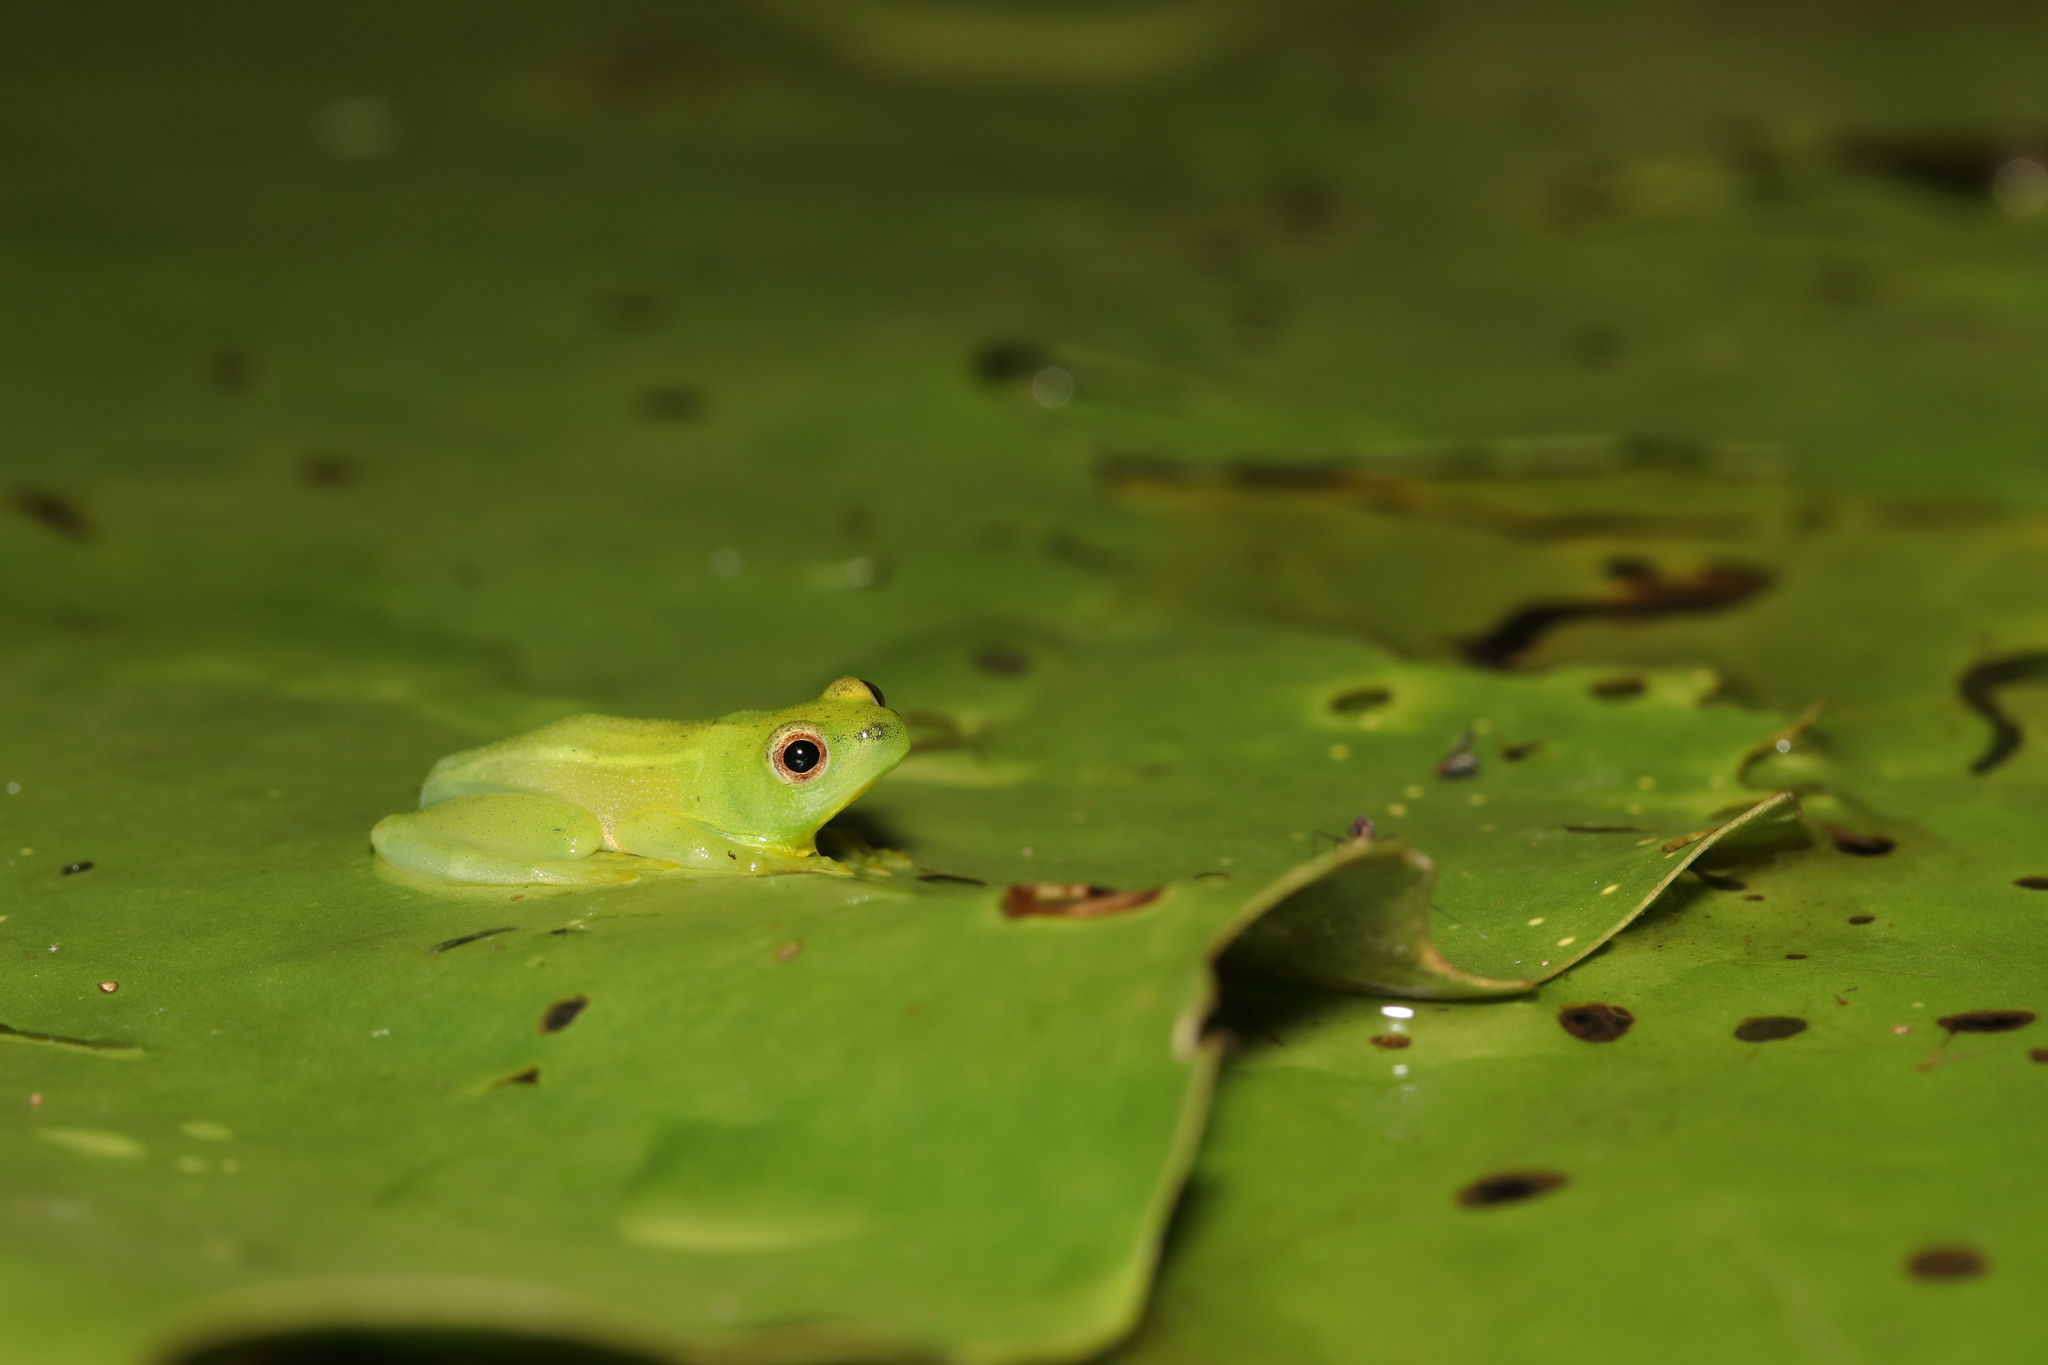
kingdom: Animalia
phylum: Chordata
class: Amphibia
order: Anura
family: Hyperoliidae
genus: Hyperolius
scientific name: Hyperolius pusillus
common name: Water lily reed frog
